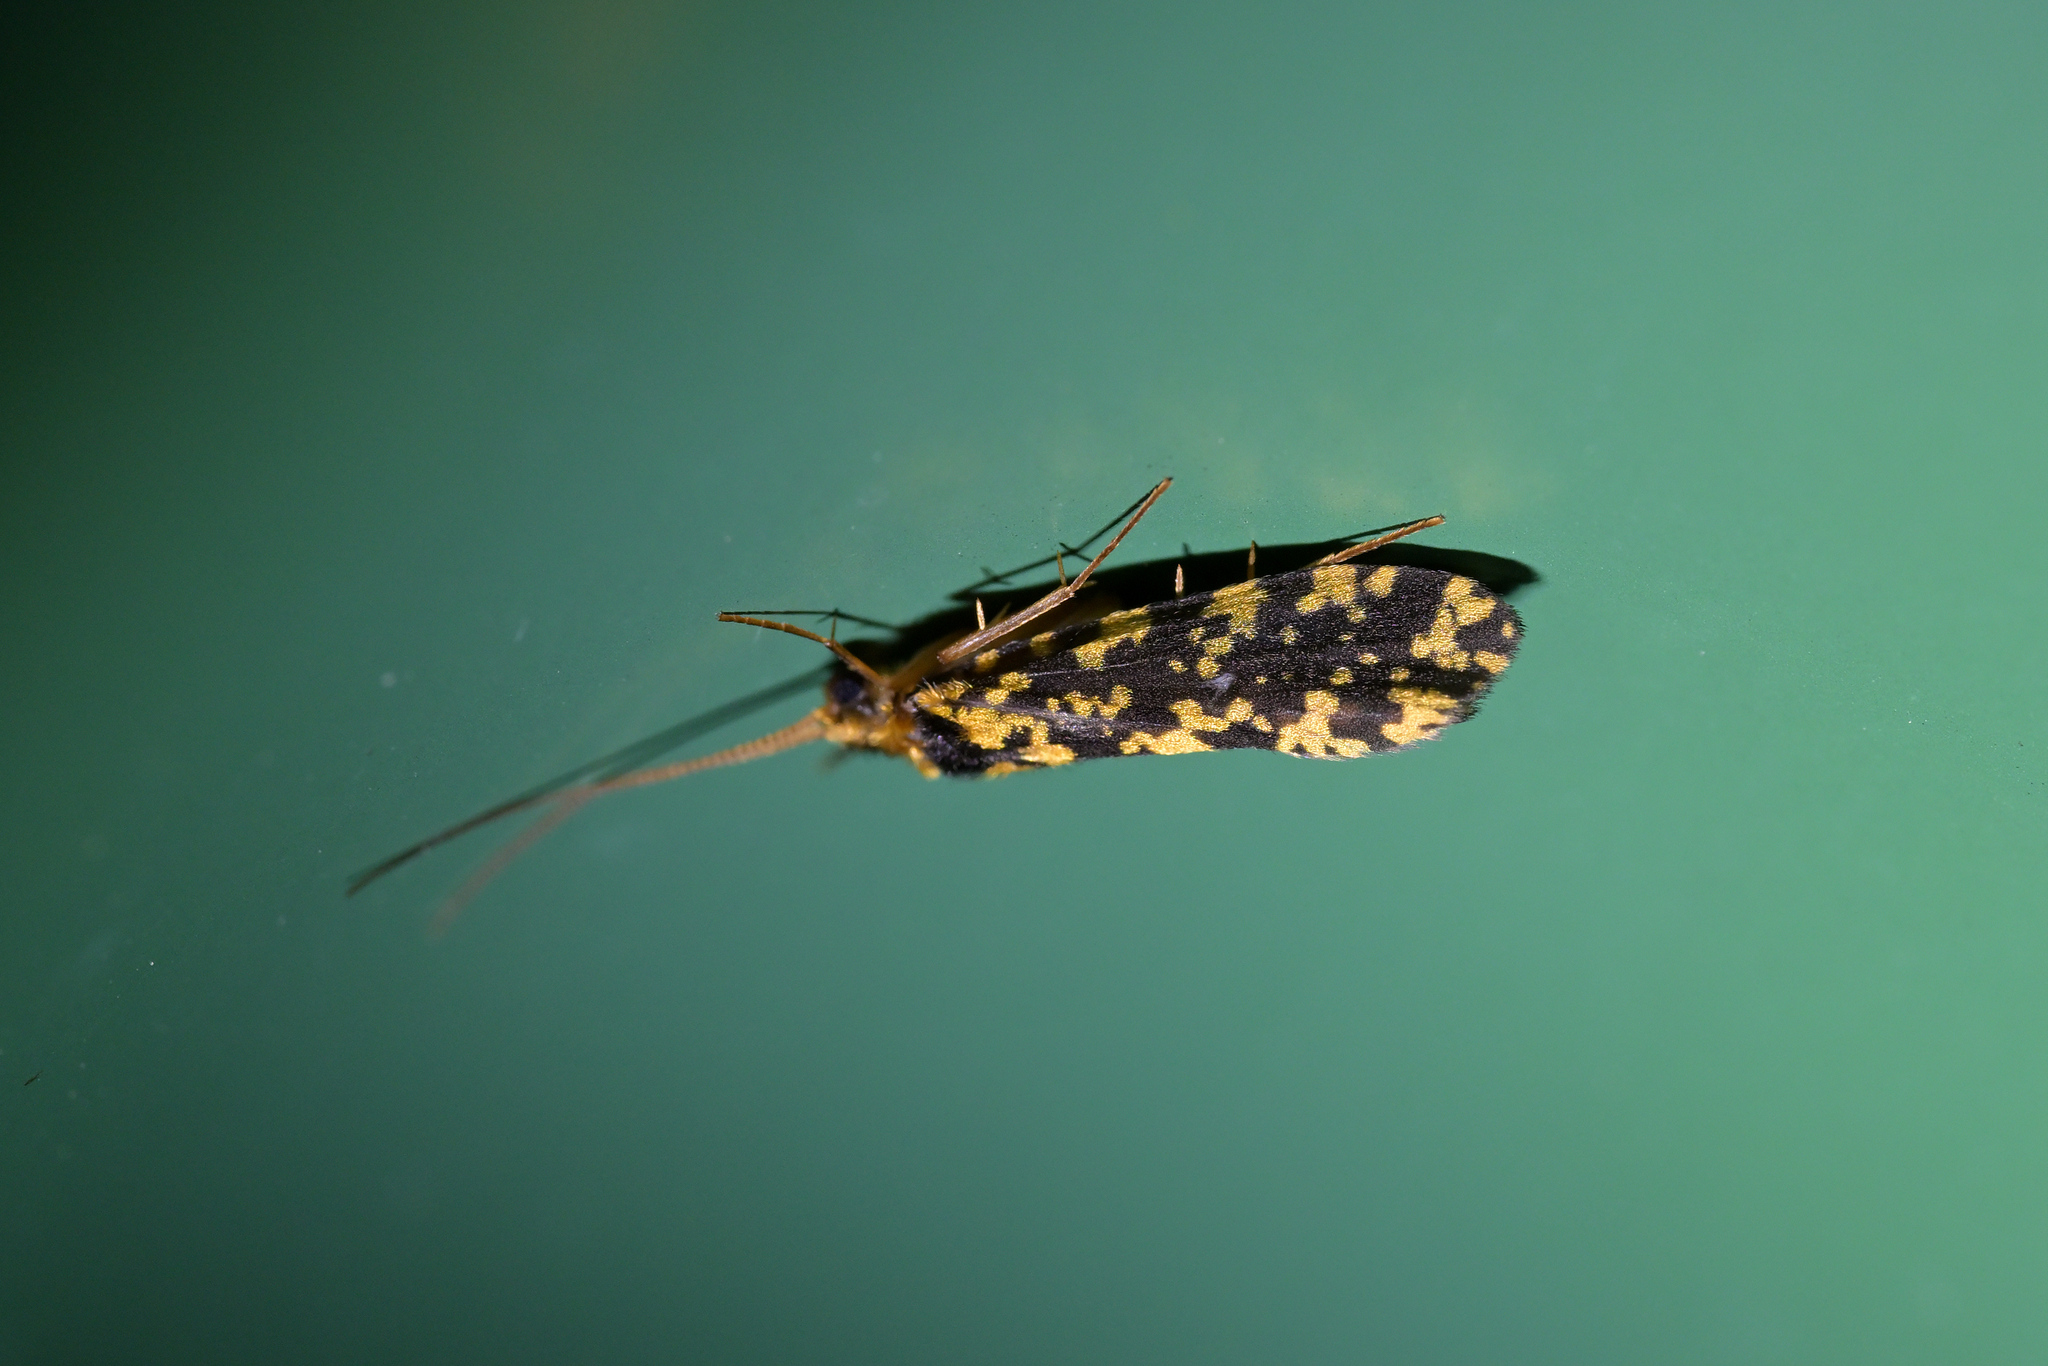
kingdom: Animalia
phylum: Arthropoda
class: Insecta
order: Trichoptera
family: Polycentropodidae
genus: Plectrocnemia
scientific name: Plectrocnemia tuhuae
